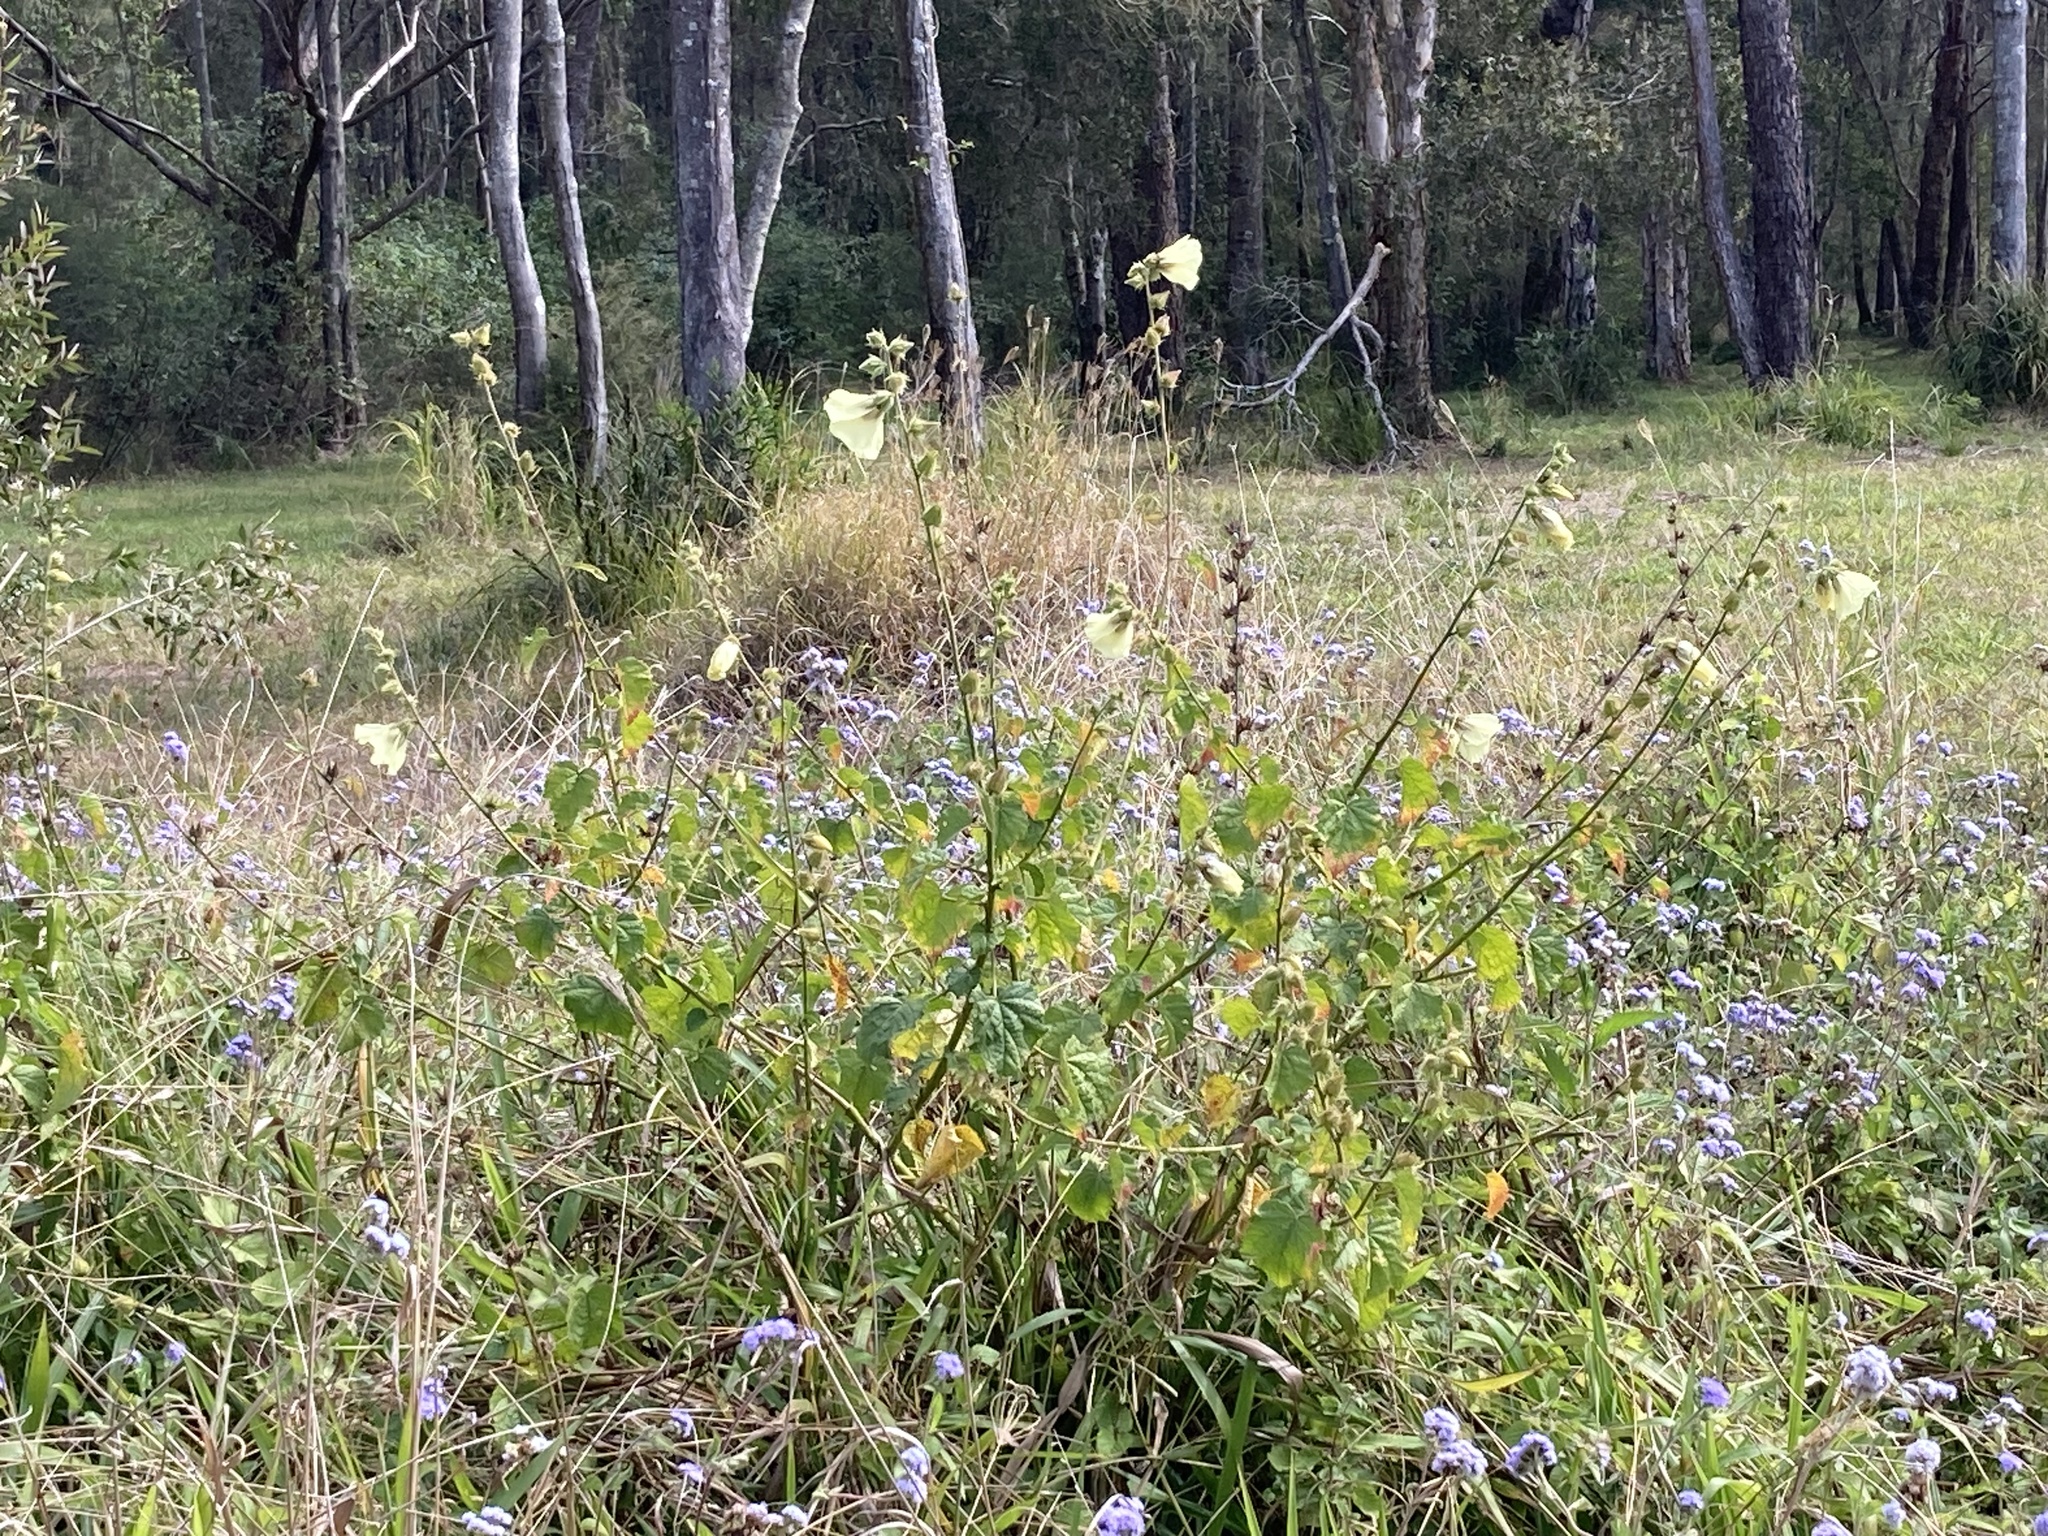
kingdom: Plantae
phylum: Tracheophyta
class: Magnoliopsida
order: Malvales
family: Malvaceae
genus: Hibiscus
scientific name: Hibiscus diversifolius
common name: Cape hibiscus
